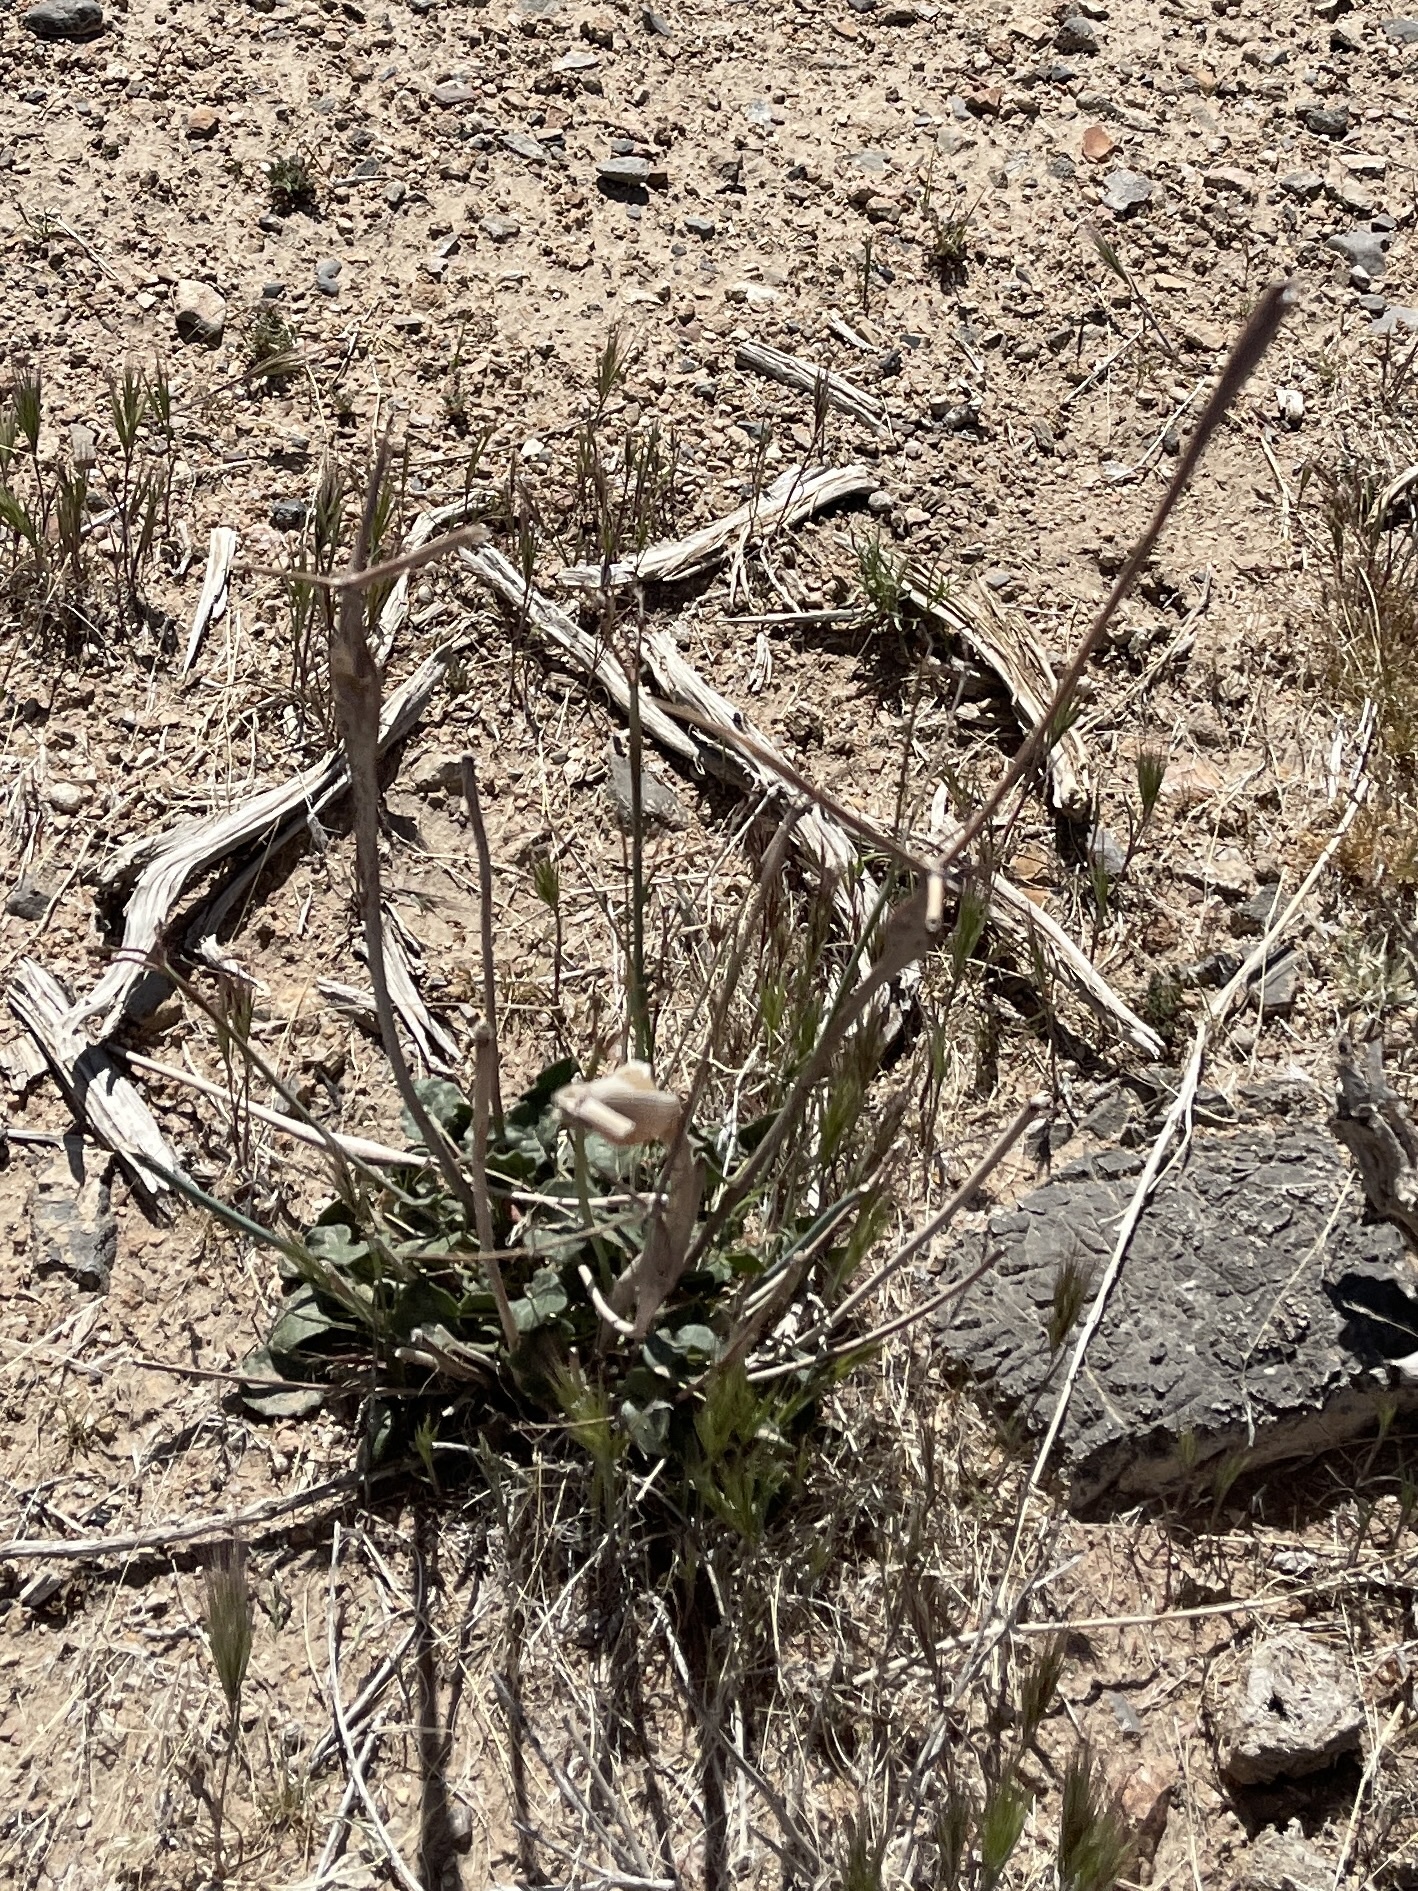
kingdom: Plantae
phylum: Tracheophyta
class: Magnoliopsida
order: Caryophyllales
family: Polygonaceae
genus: Eriogonum
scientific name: Eriogonum inflatum
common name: Desert trumpet
